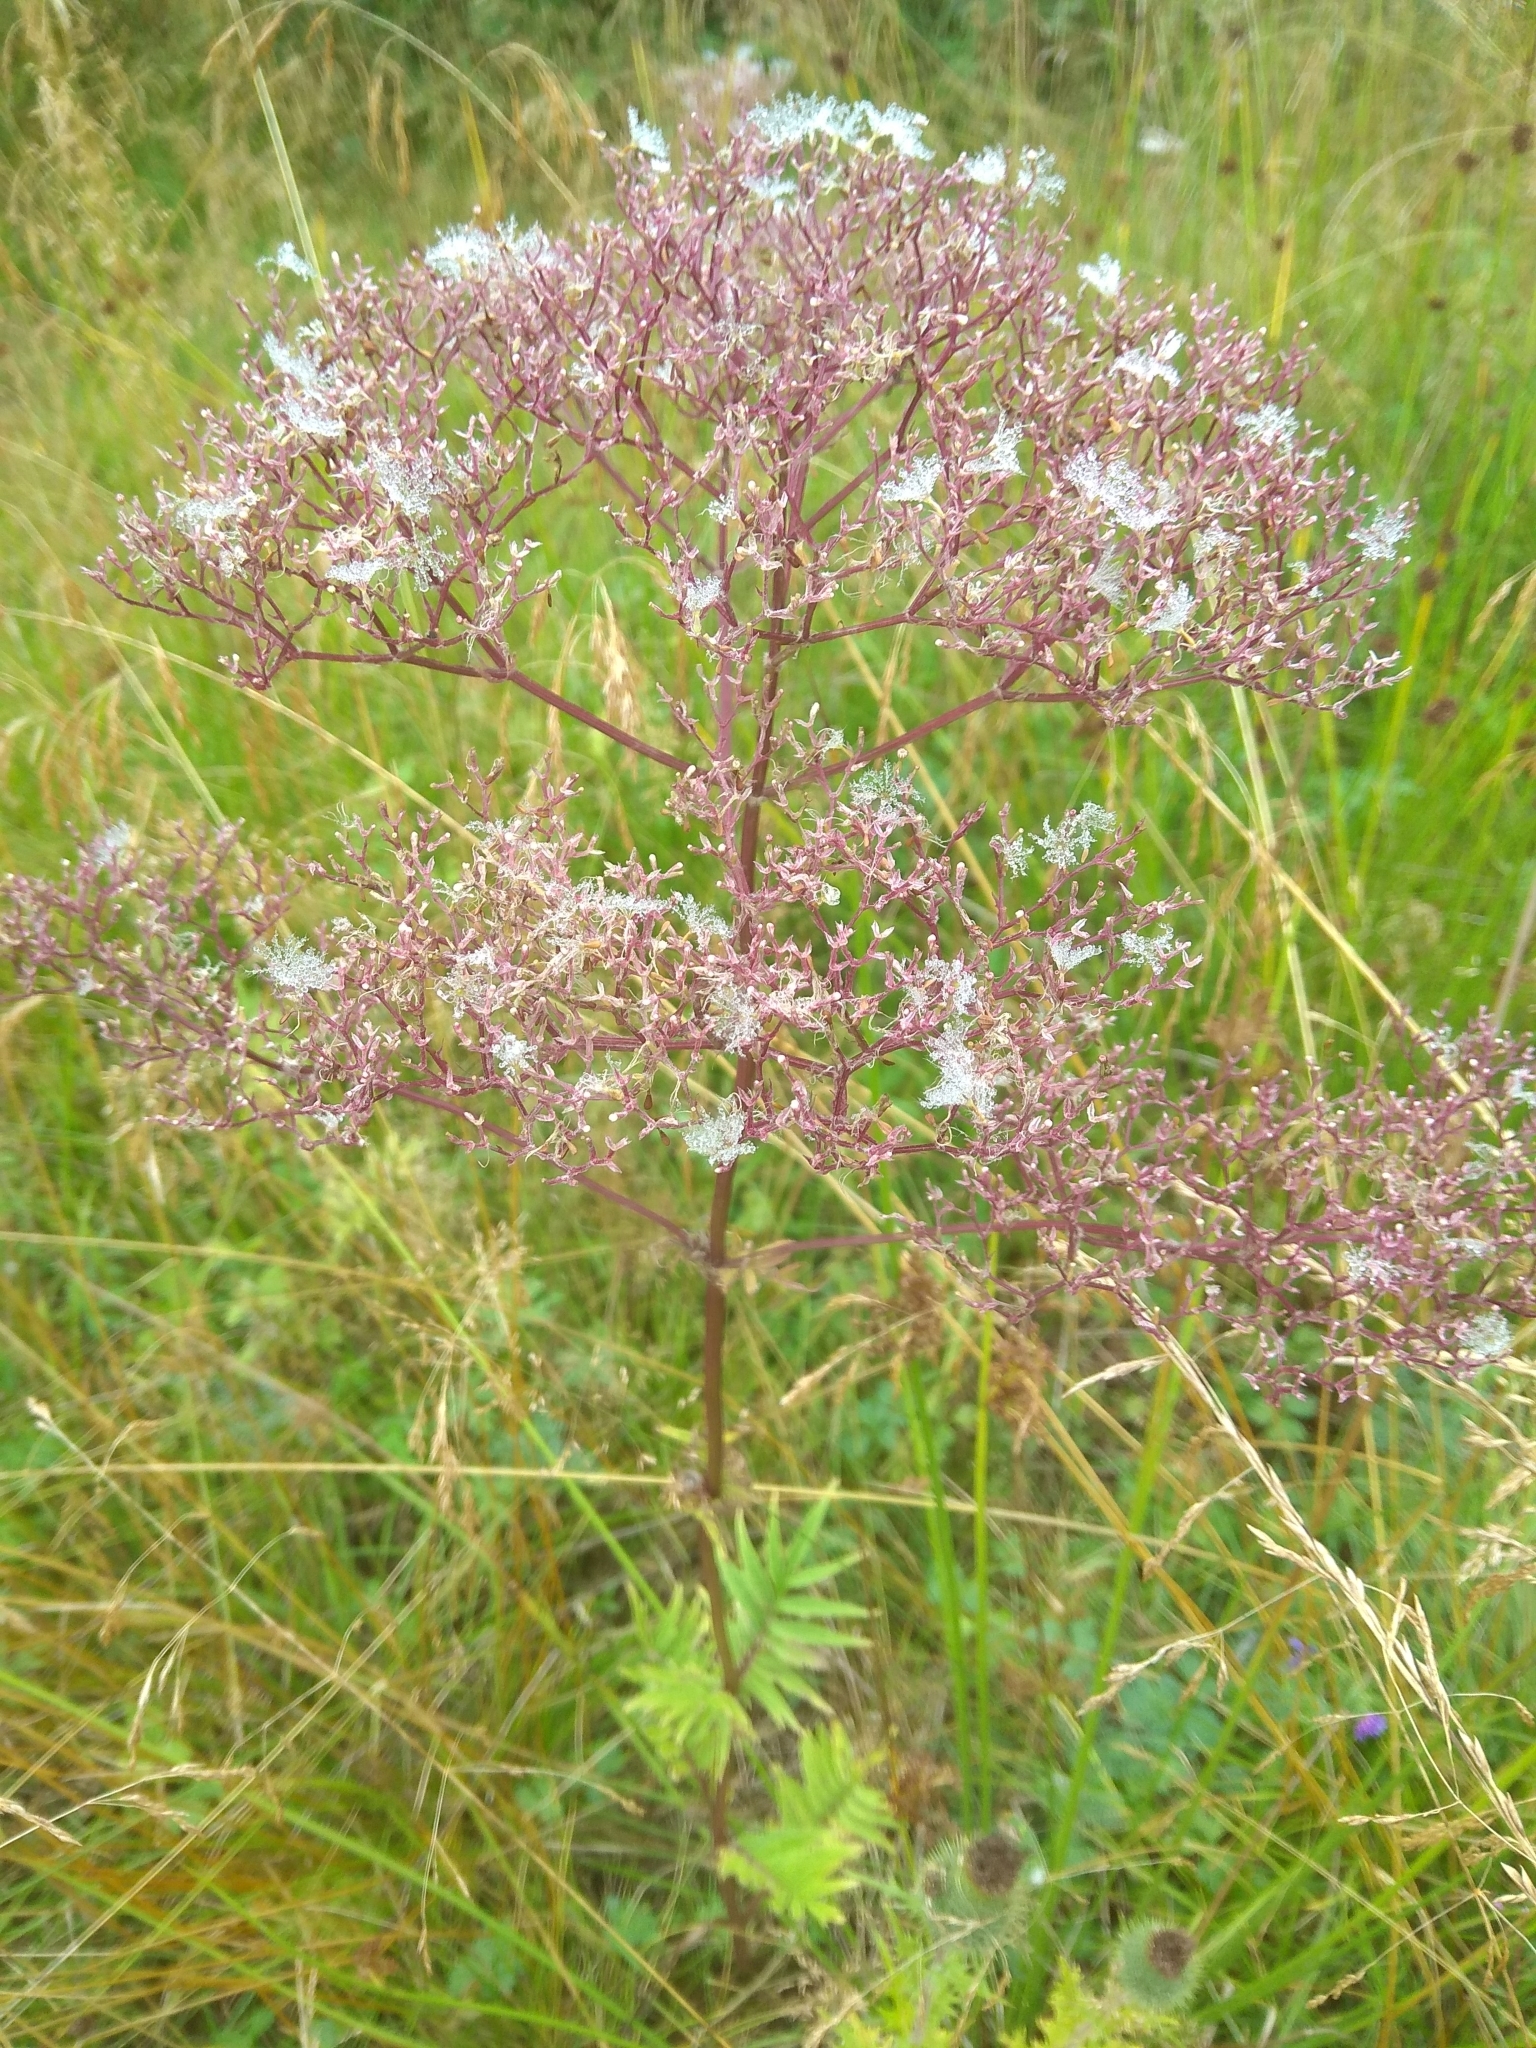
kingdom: Plantae
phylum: Tracheophyta
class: Magnoliopsida
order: Dipsacales
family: Caprifoliaceae
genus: Valeriana
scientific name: Valeriana officinalis
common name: Common valerian
